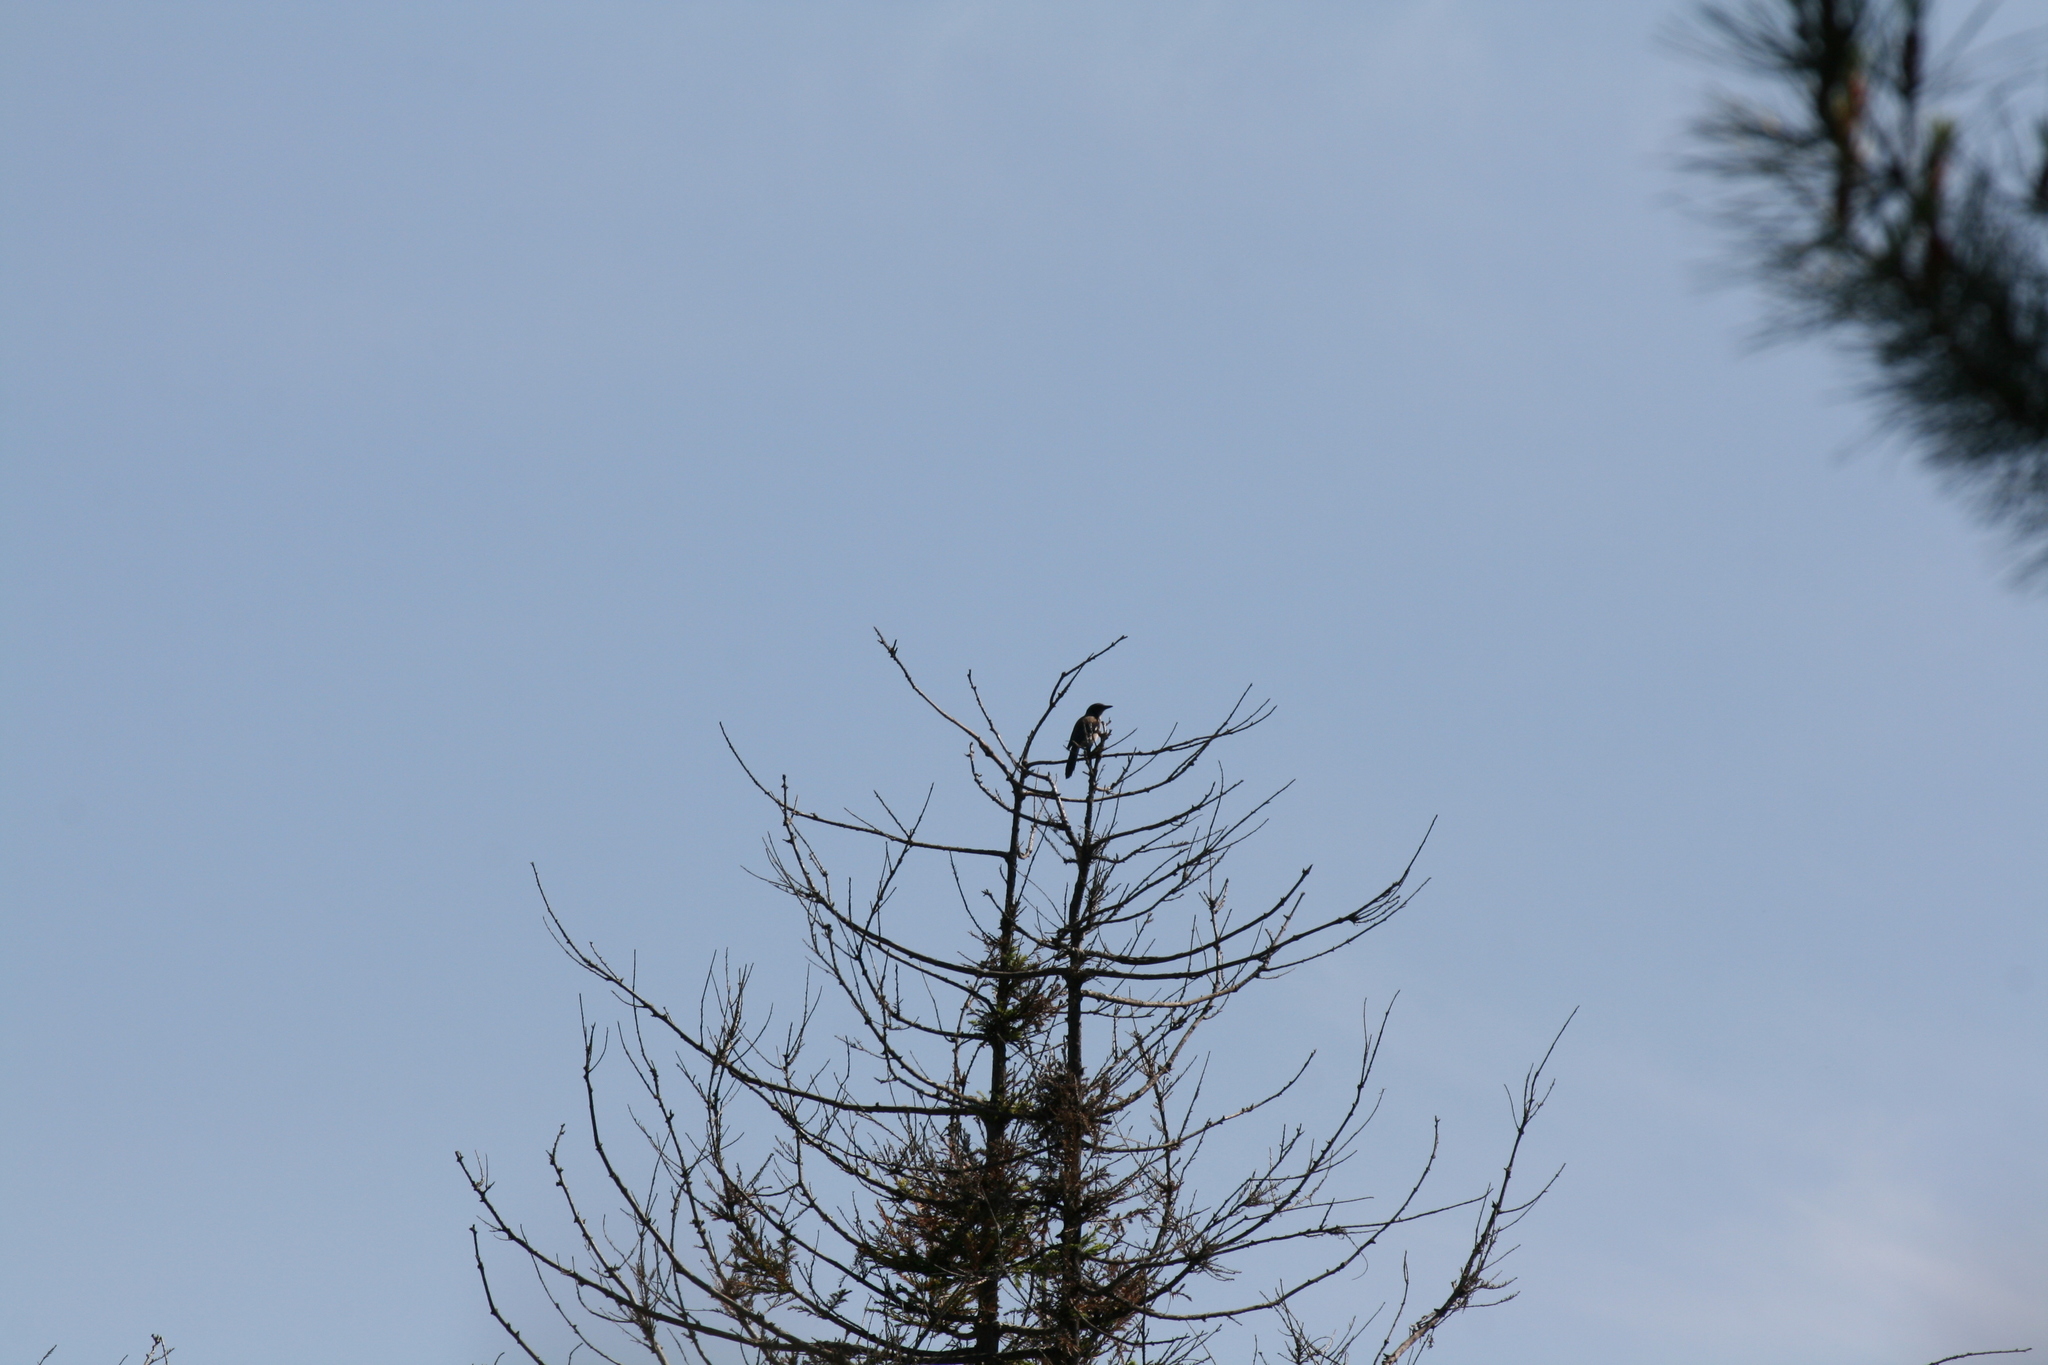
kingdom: Animalia
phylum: Chordata
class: Aves
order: Passeriformes
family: Corvidae
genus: Aphelocoma
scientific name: Aphelocoma californica
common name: California scrub-jay
